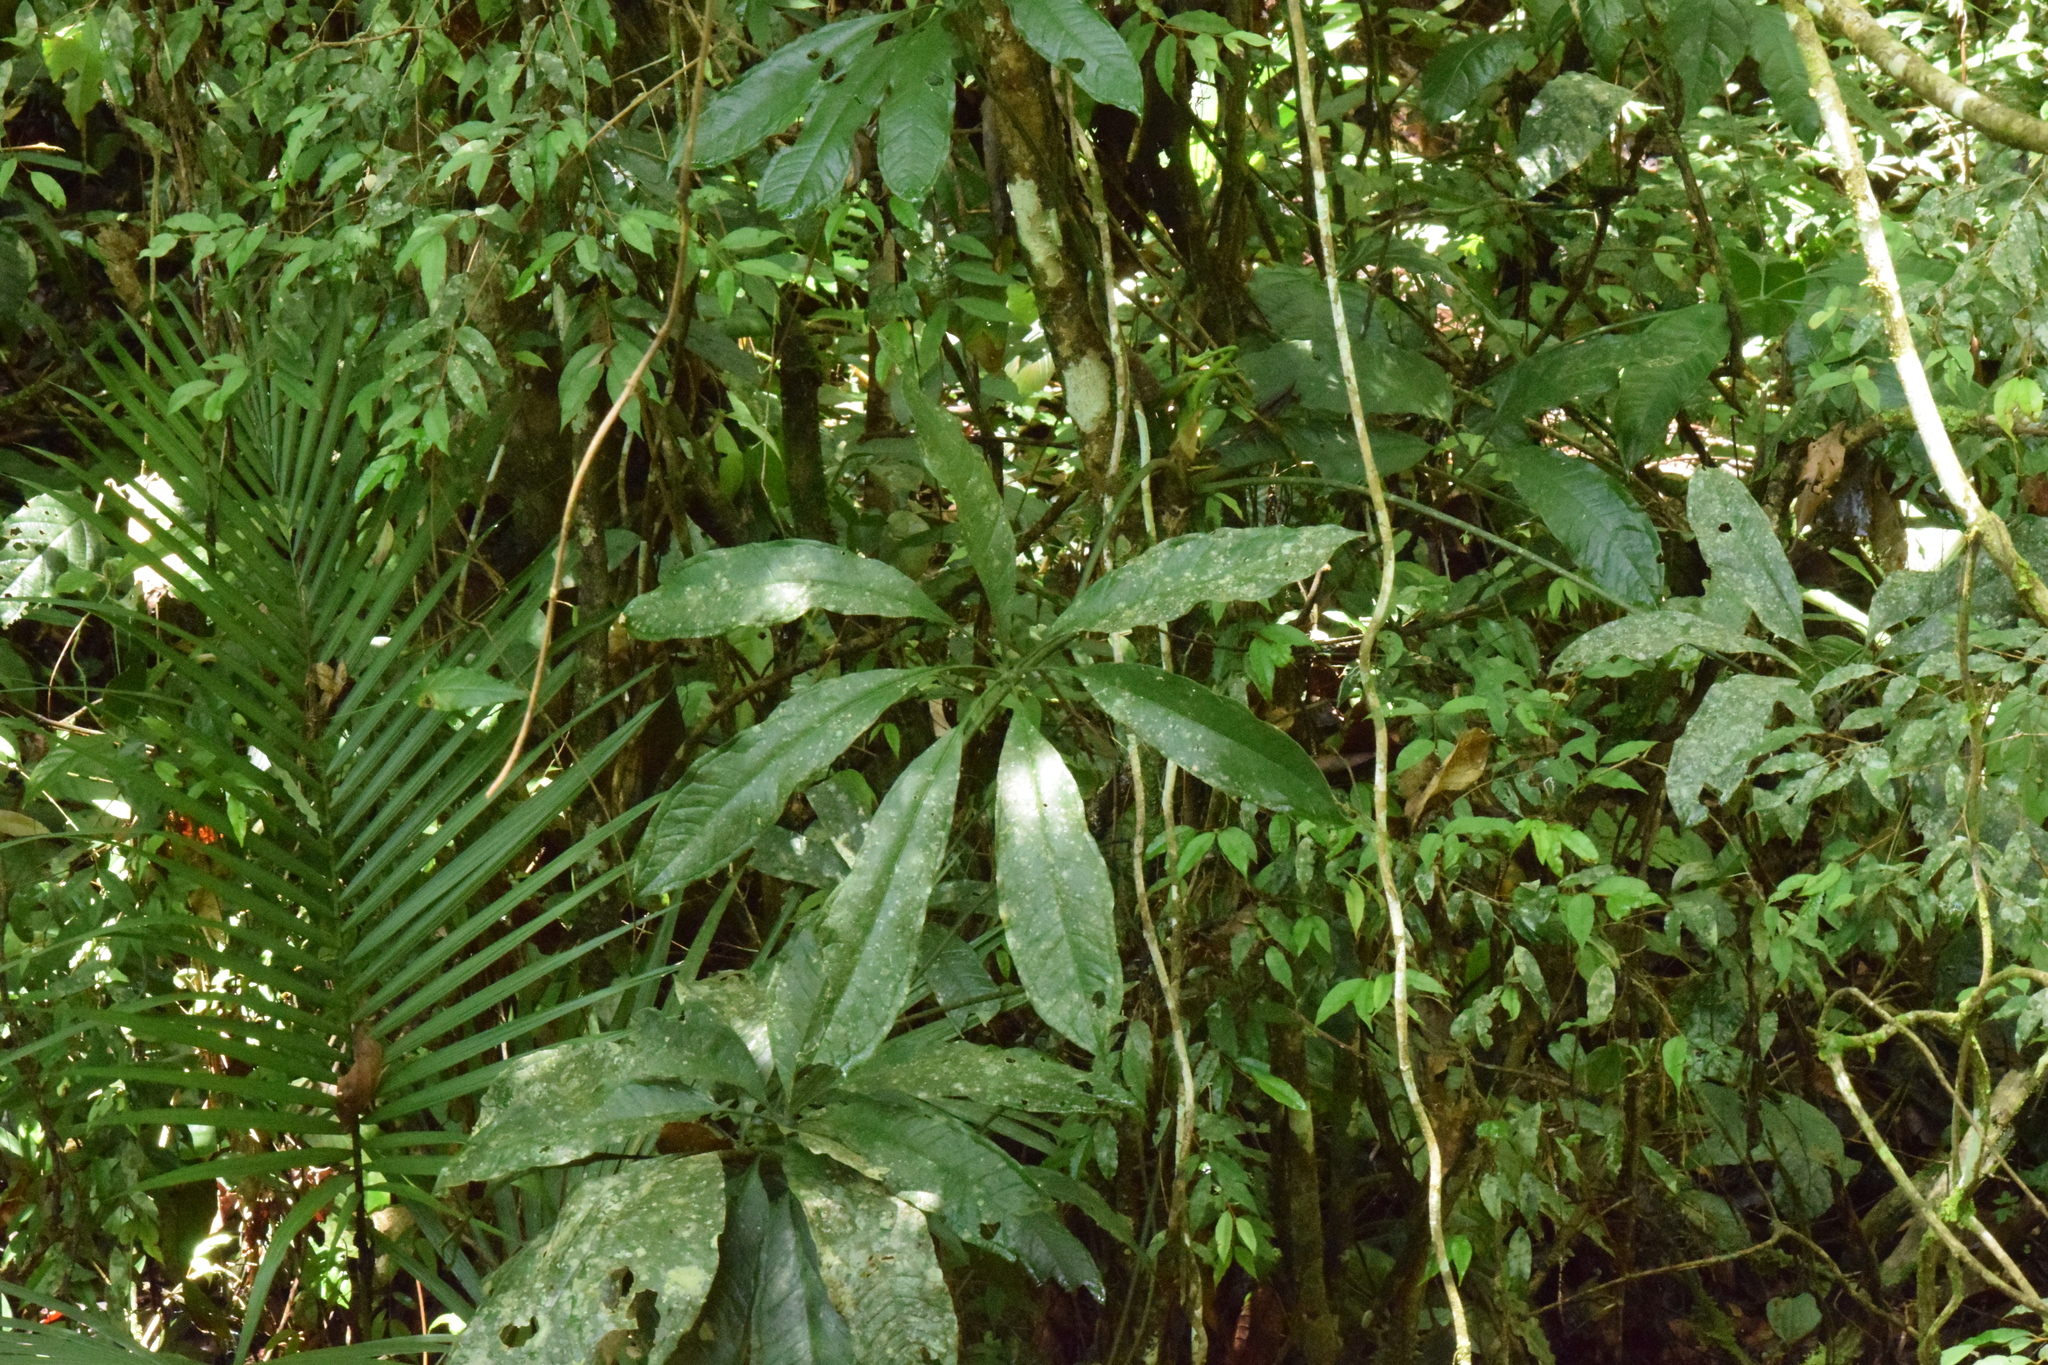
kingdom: Plantae
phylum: Tracheophyta
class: Liliopsida
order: Alismatales
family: Araceae
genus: Anthurium
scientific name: Anthurium pentaphyllum
